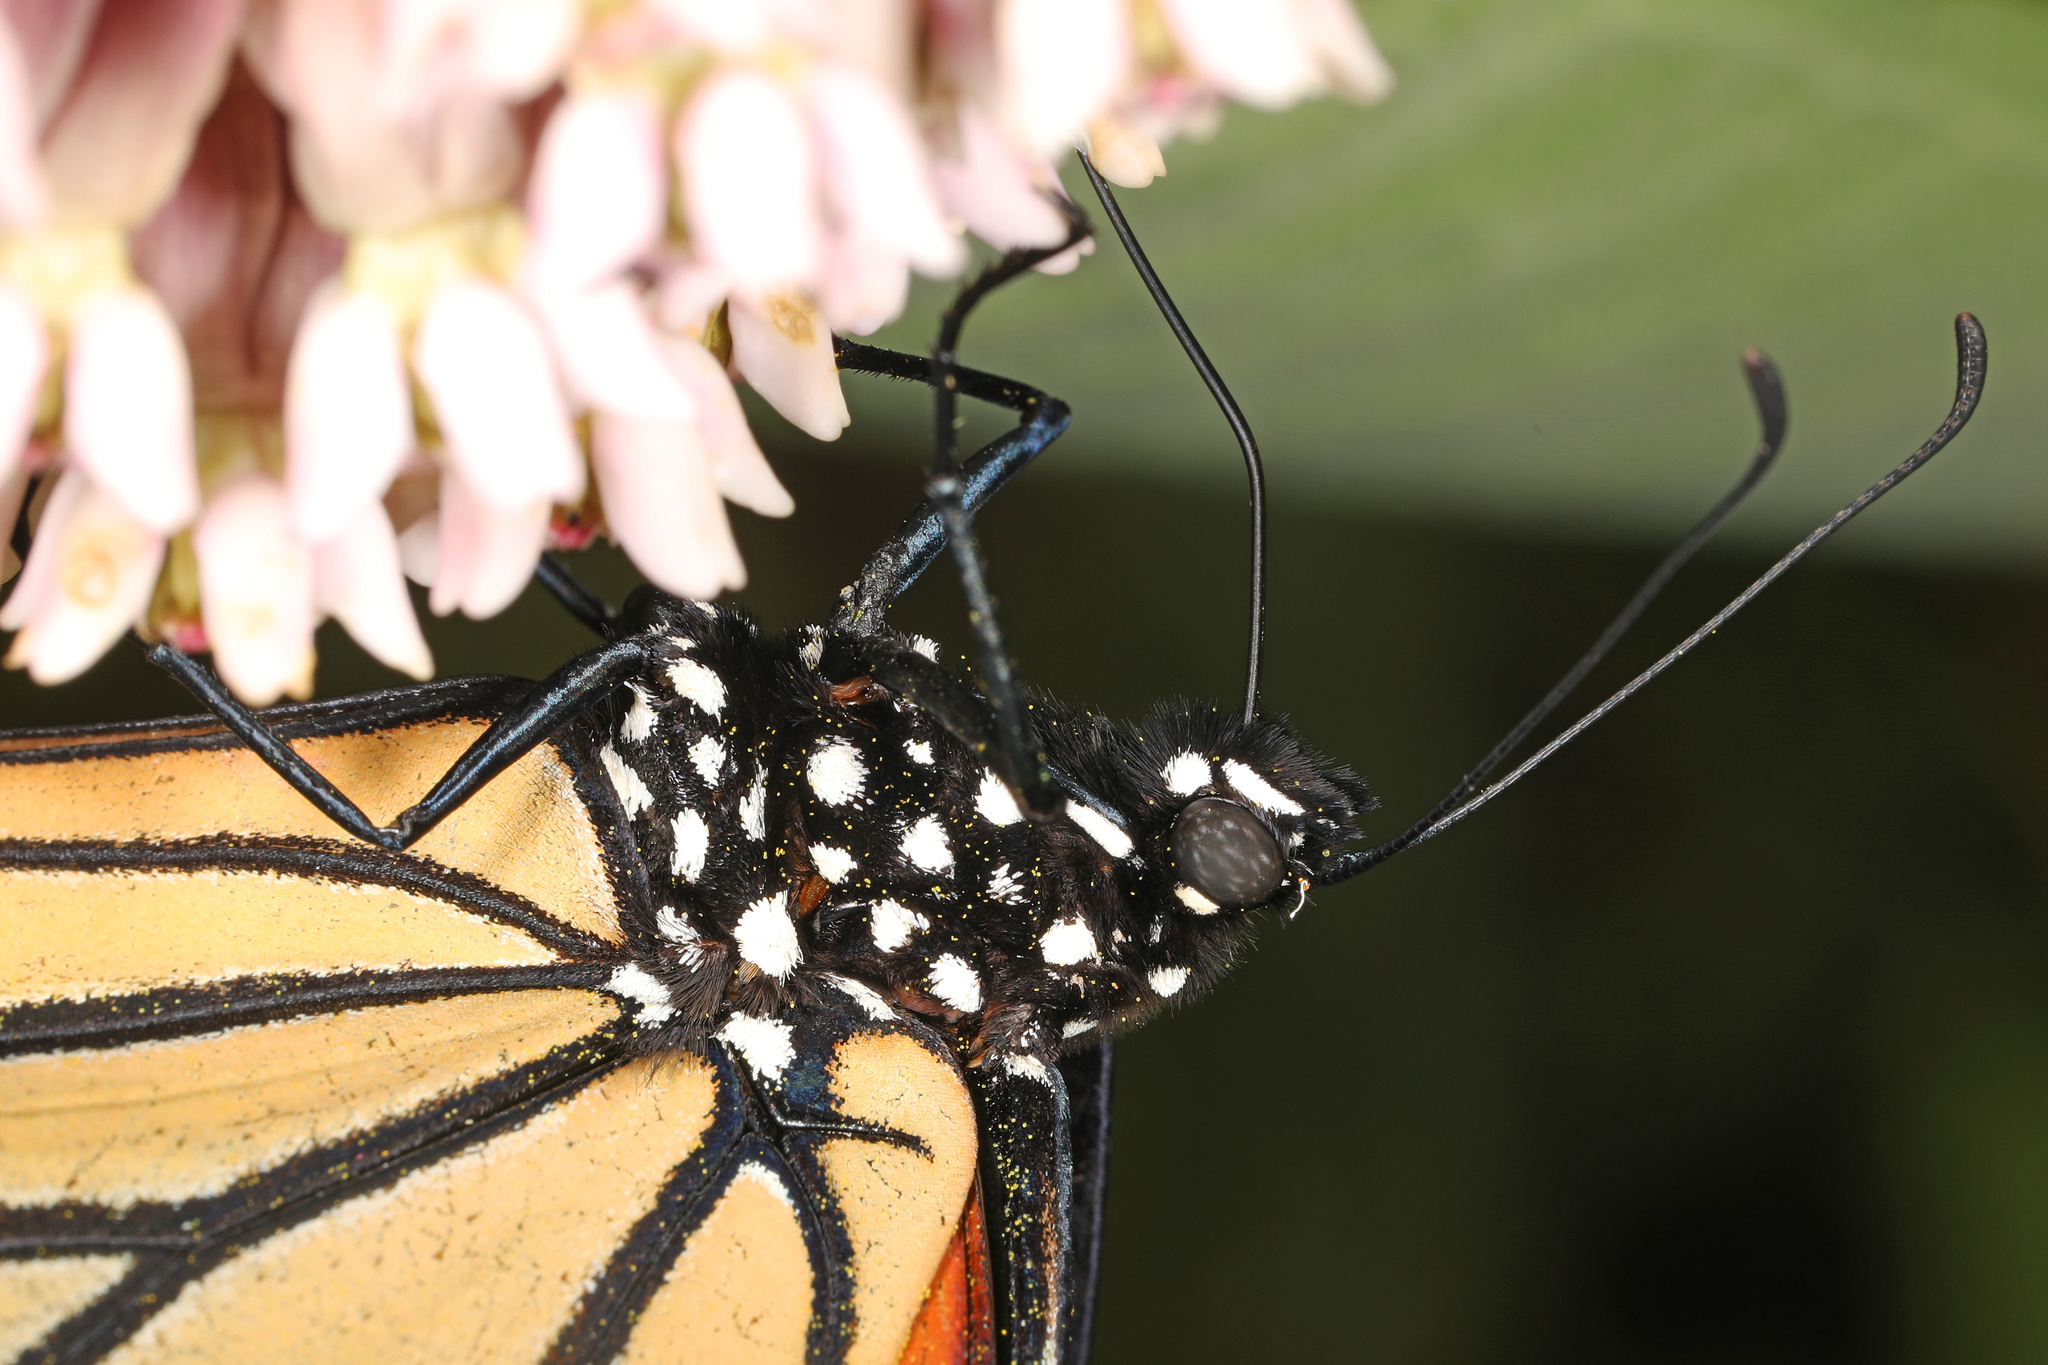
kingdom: Animalia
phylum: Arthropoda
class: Insecta
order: Lepidoptera
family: Nymphalidae
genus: Danaus
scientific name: Danaus plexippus
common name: Monarch
